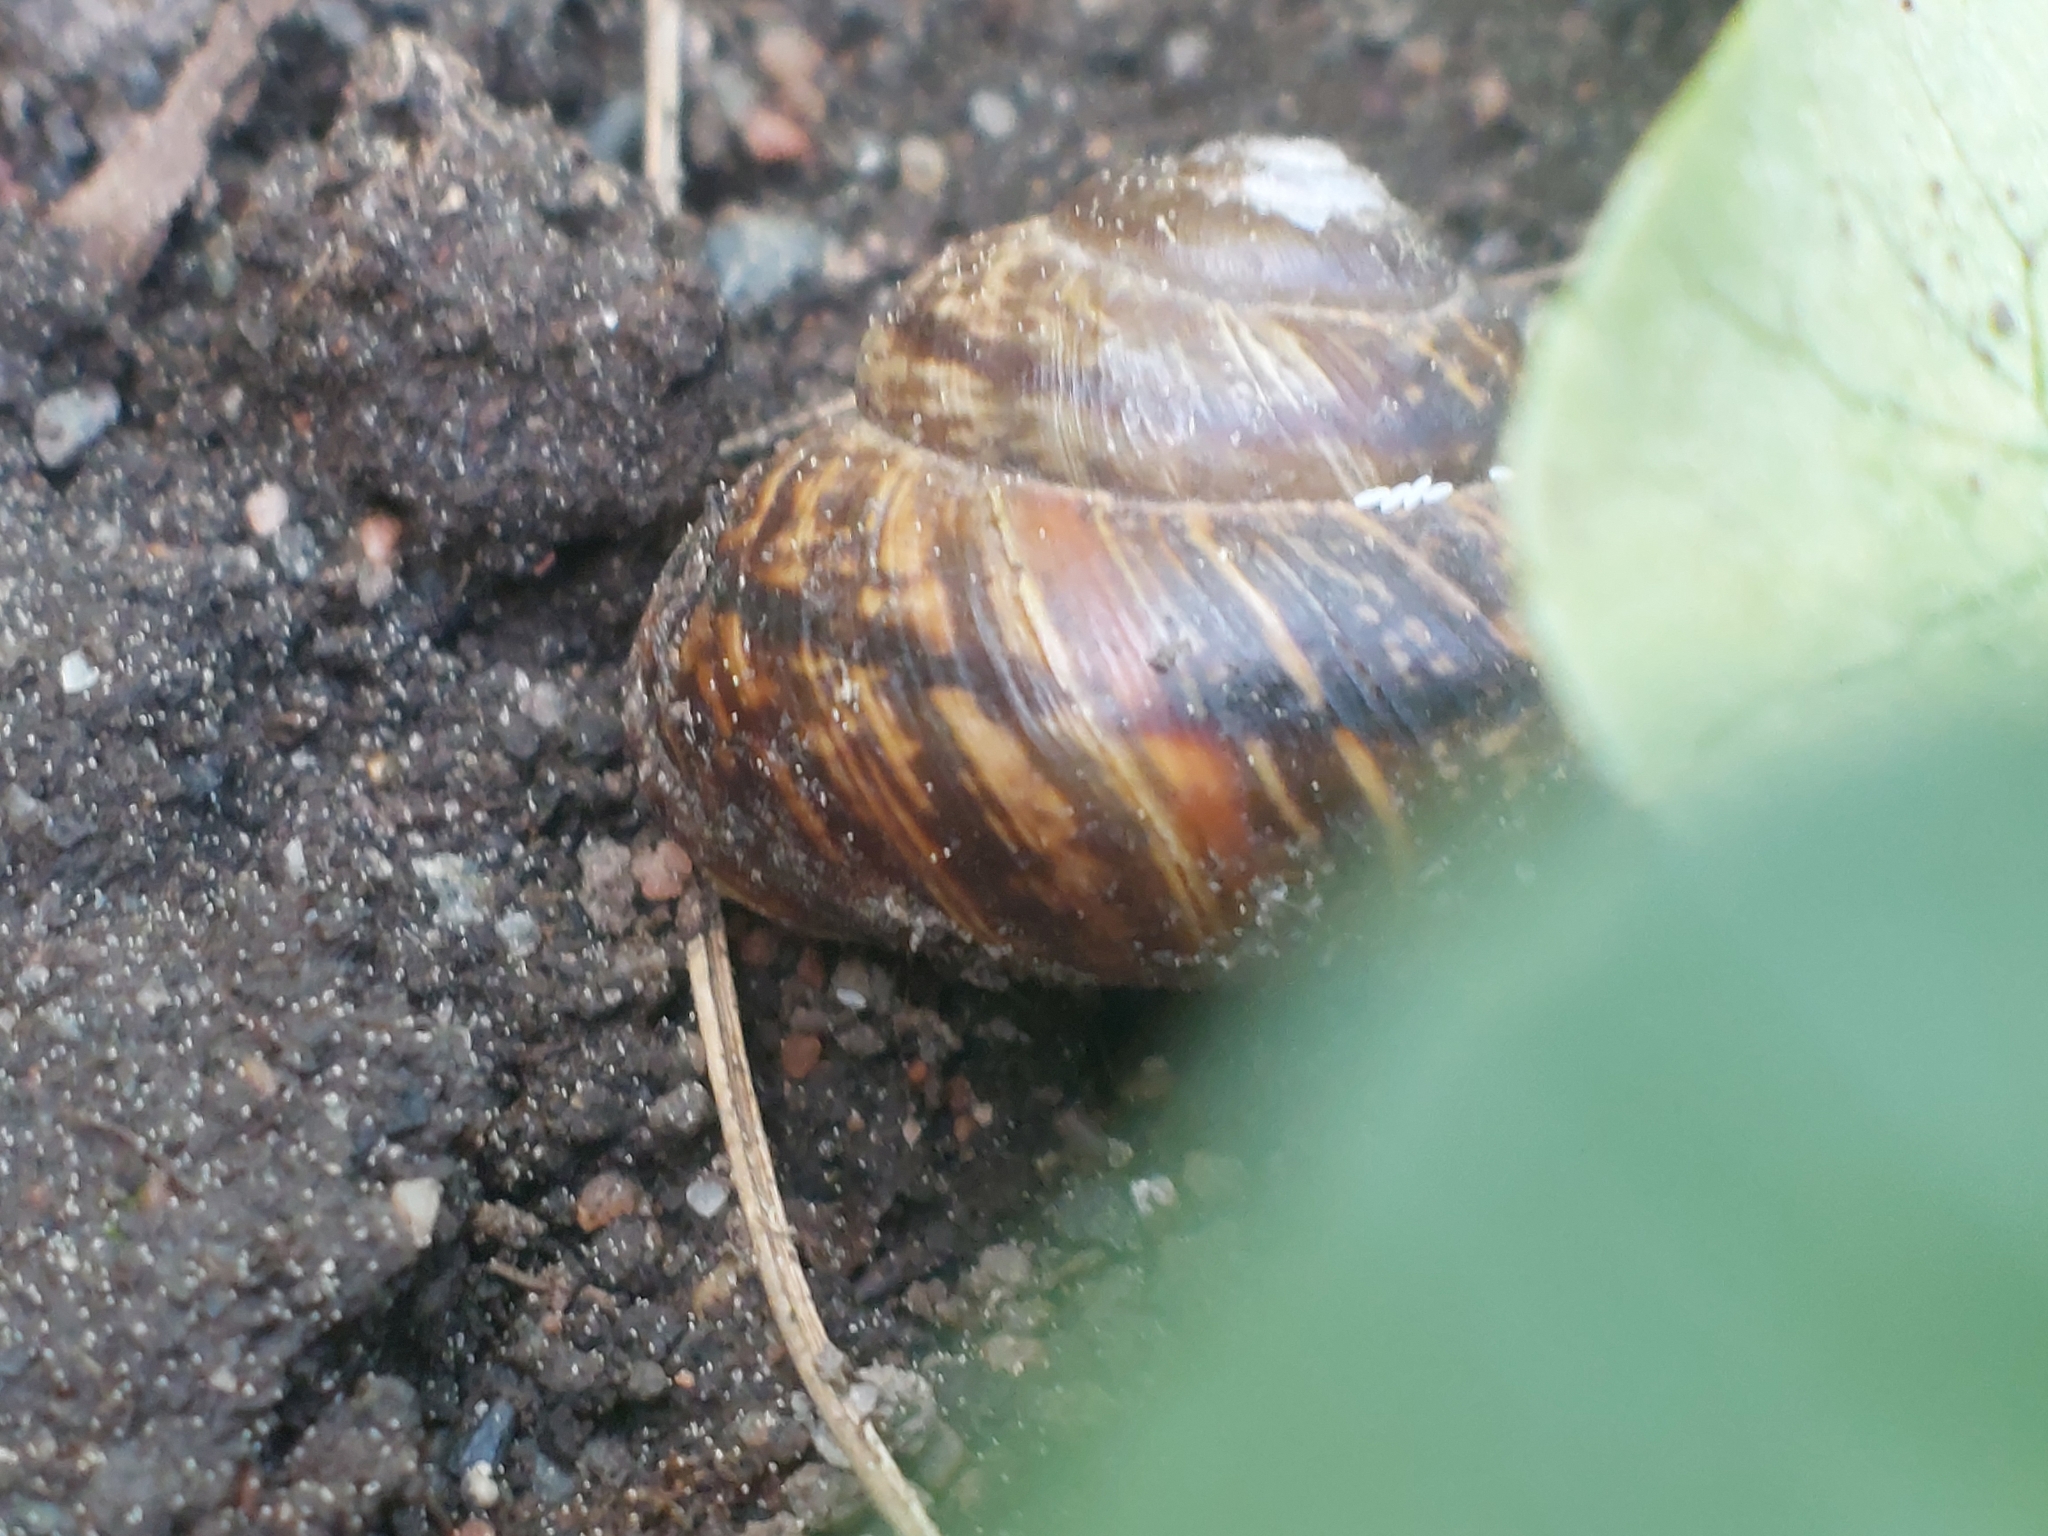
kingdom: Animalia
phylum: Mollusca
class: Gastropoda
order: Stylommatophora
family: Helicidae
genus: Arianta
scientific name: Arianta arbustorum
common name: Copse snail
